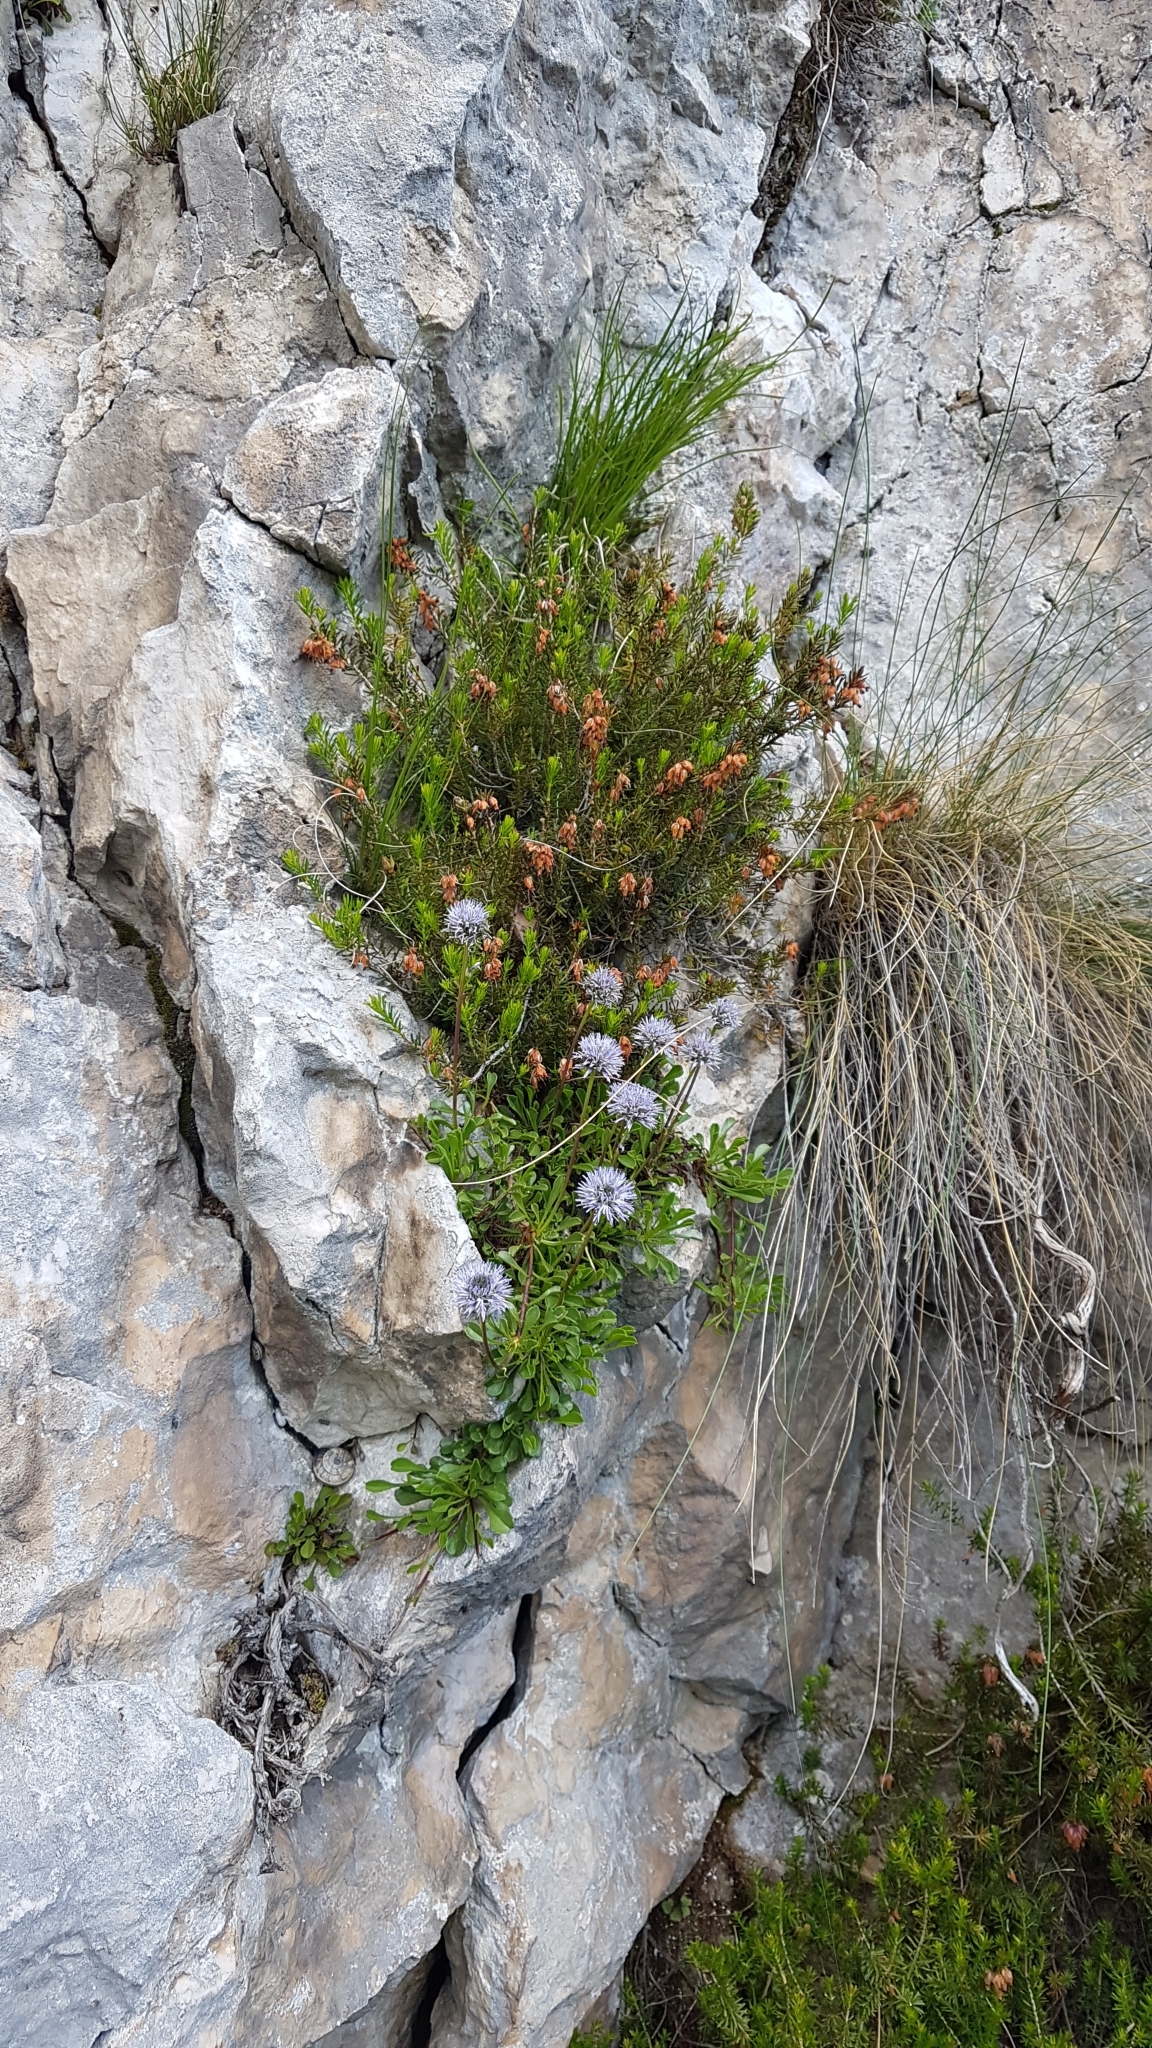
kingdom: Plantae
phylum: Tracheophyta
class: Magnoliopsida
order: Lamiales
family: Plantaginaceae
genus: Globularia
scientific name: Globularia cordifolia
